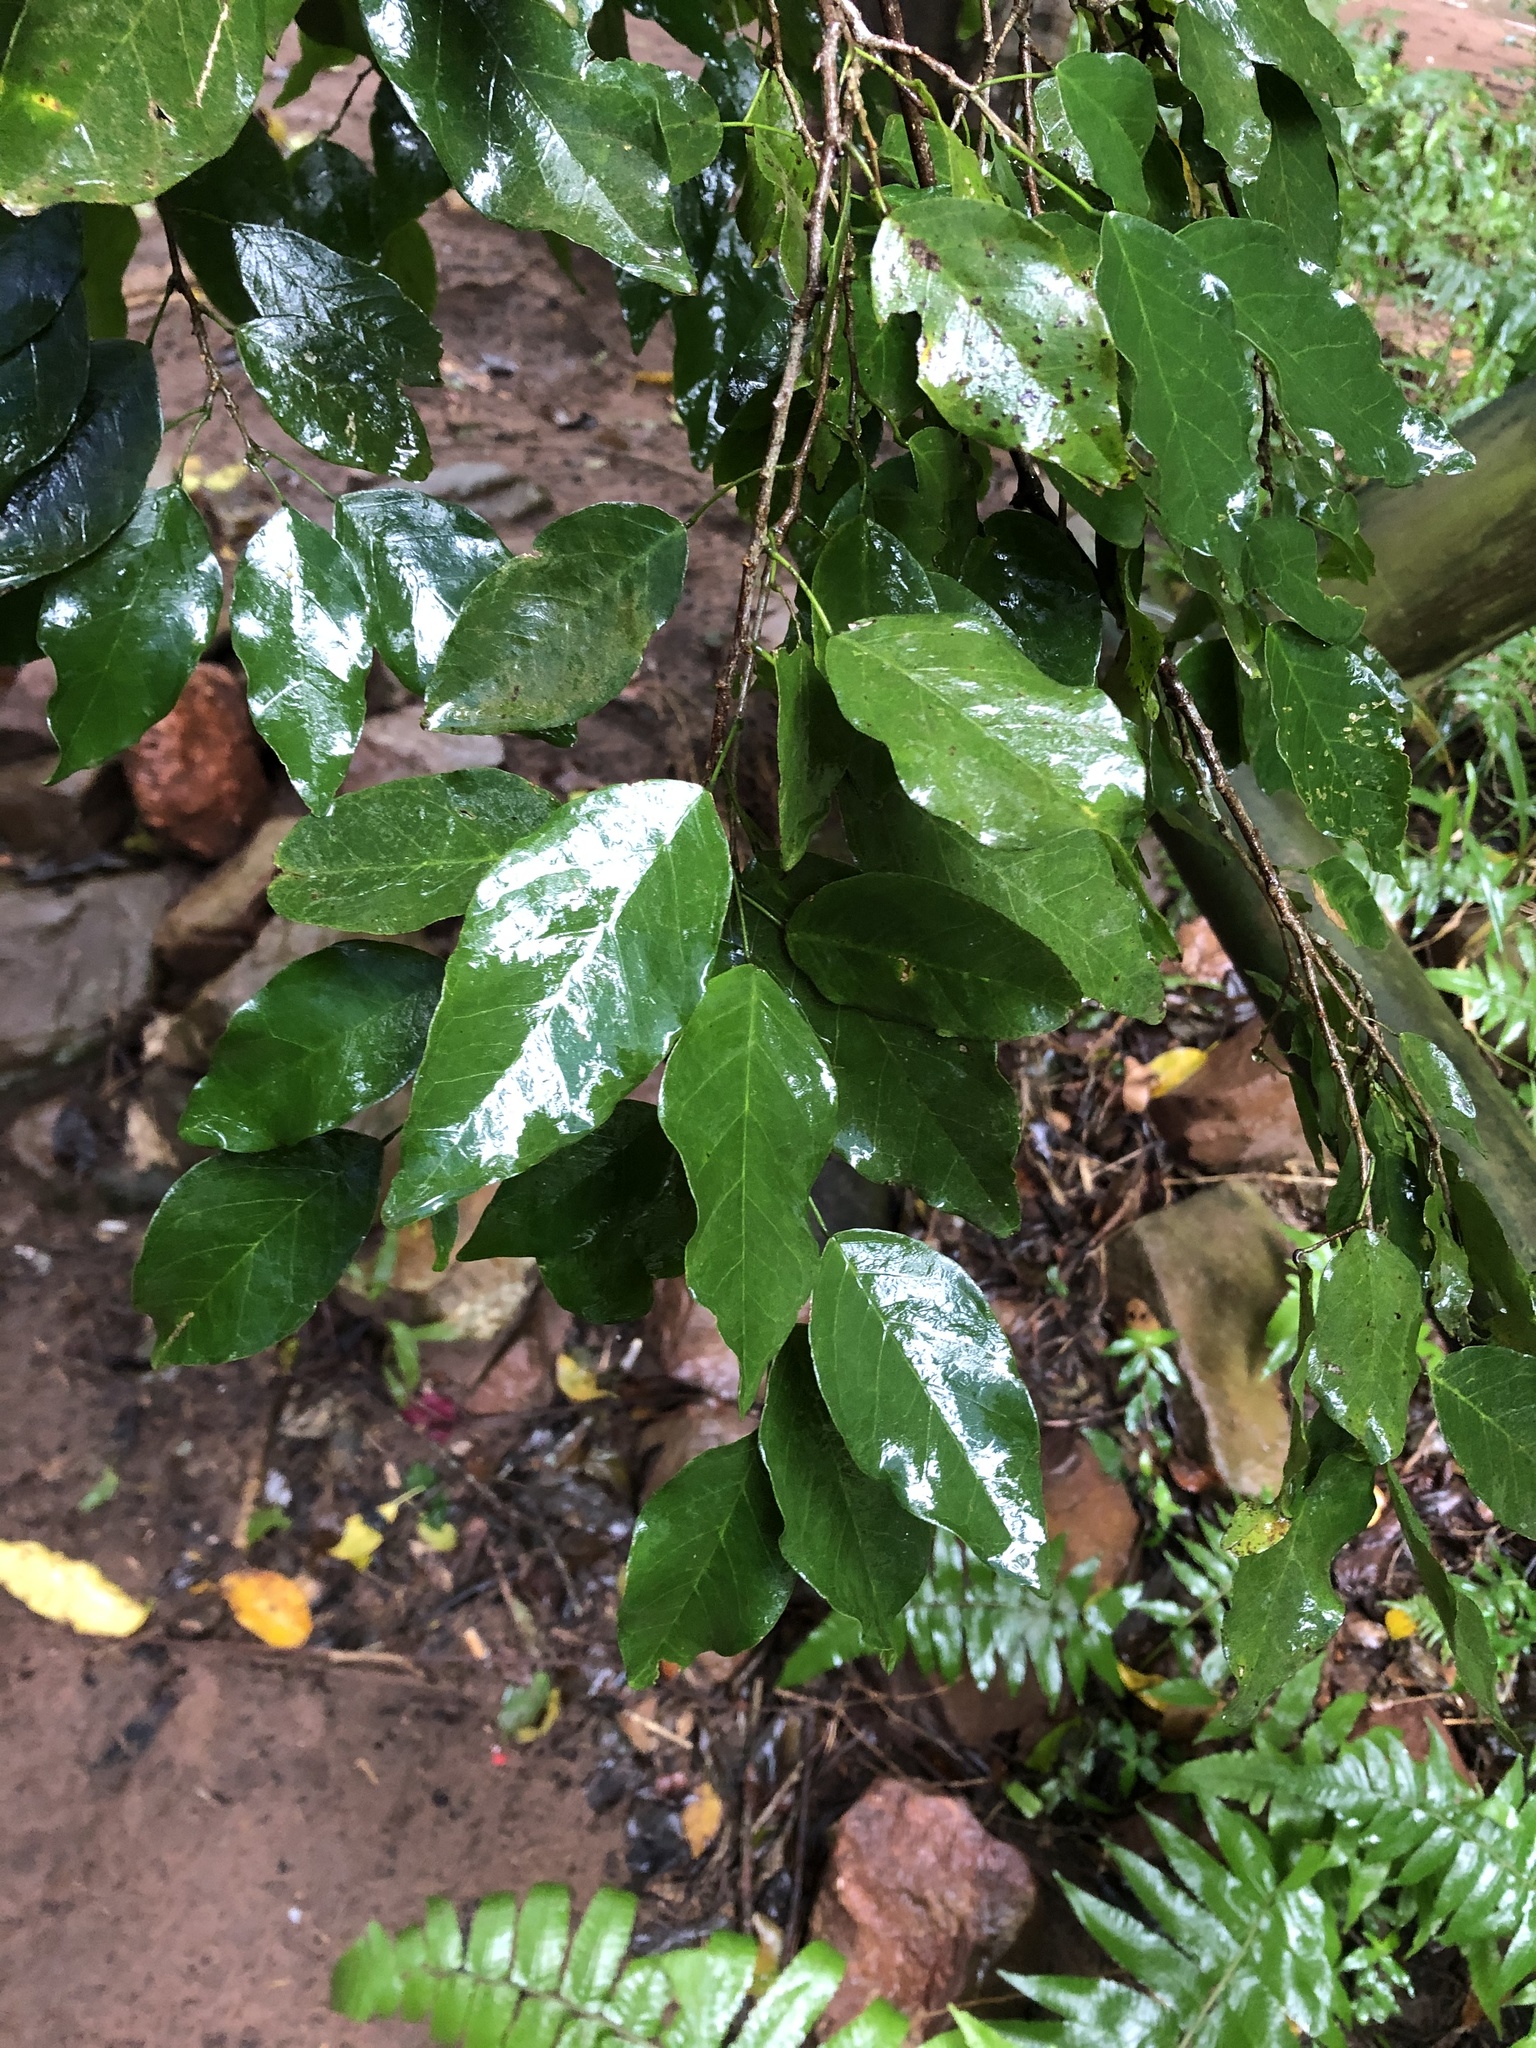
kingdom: Plantae
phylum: Tracheophyta
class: Magnoliopsida
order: Fabales
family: Fabaceae
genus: Bracteolaria
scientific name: Bracteolaria racemosa
